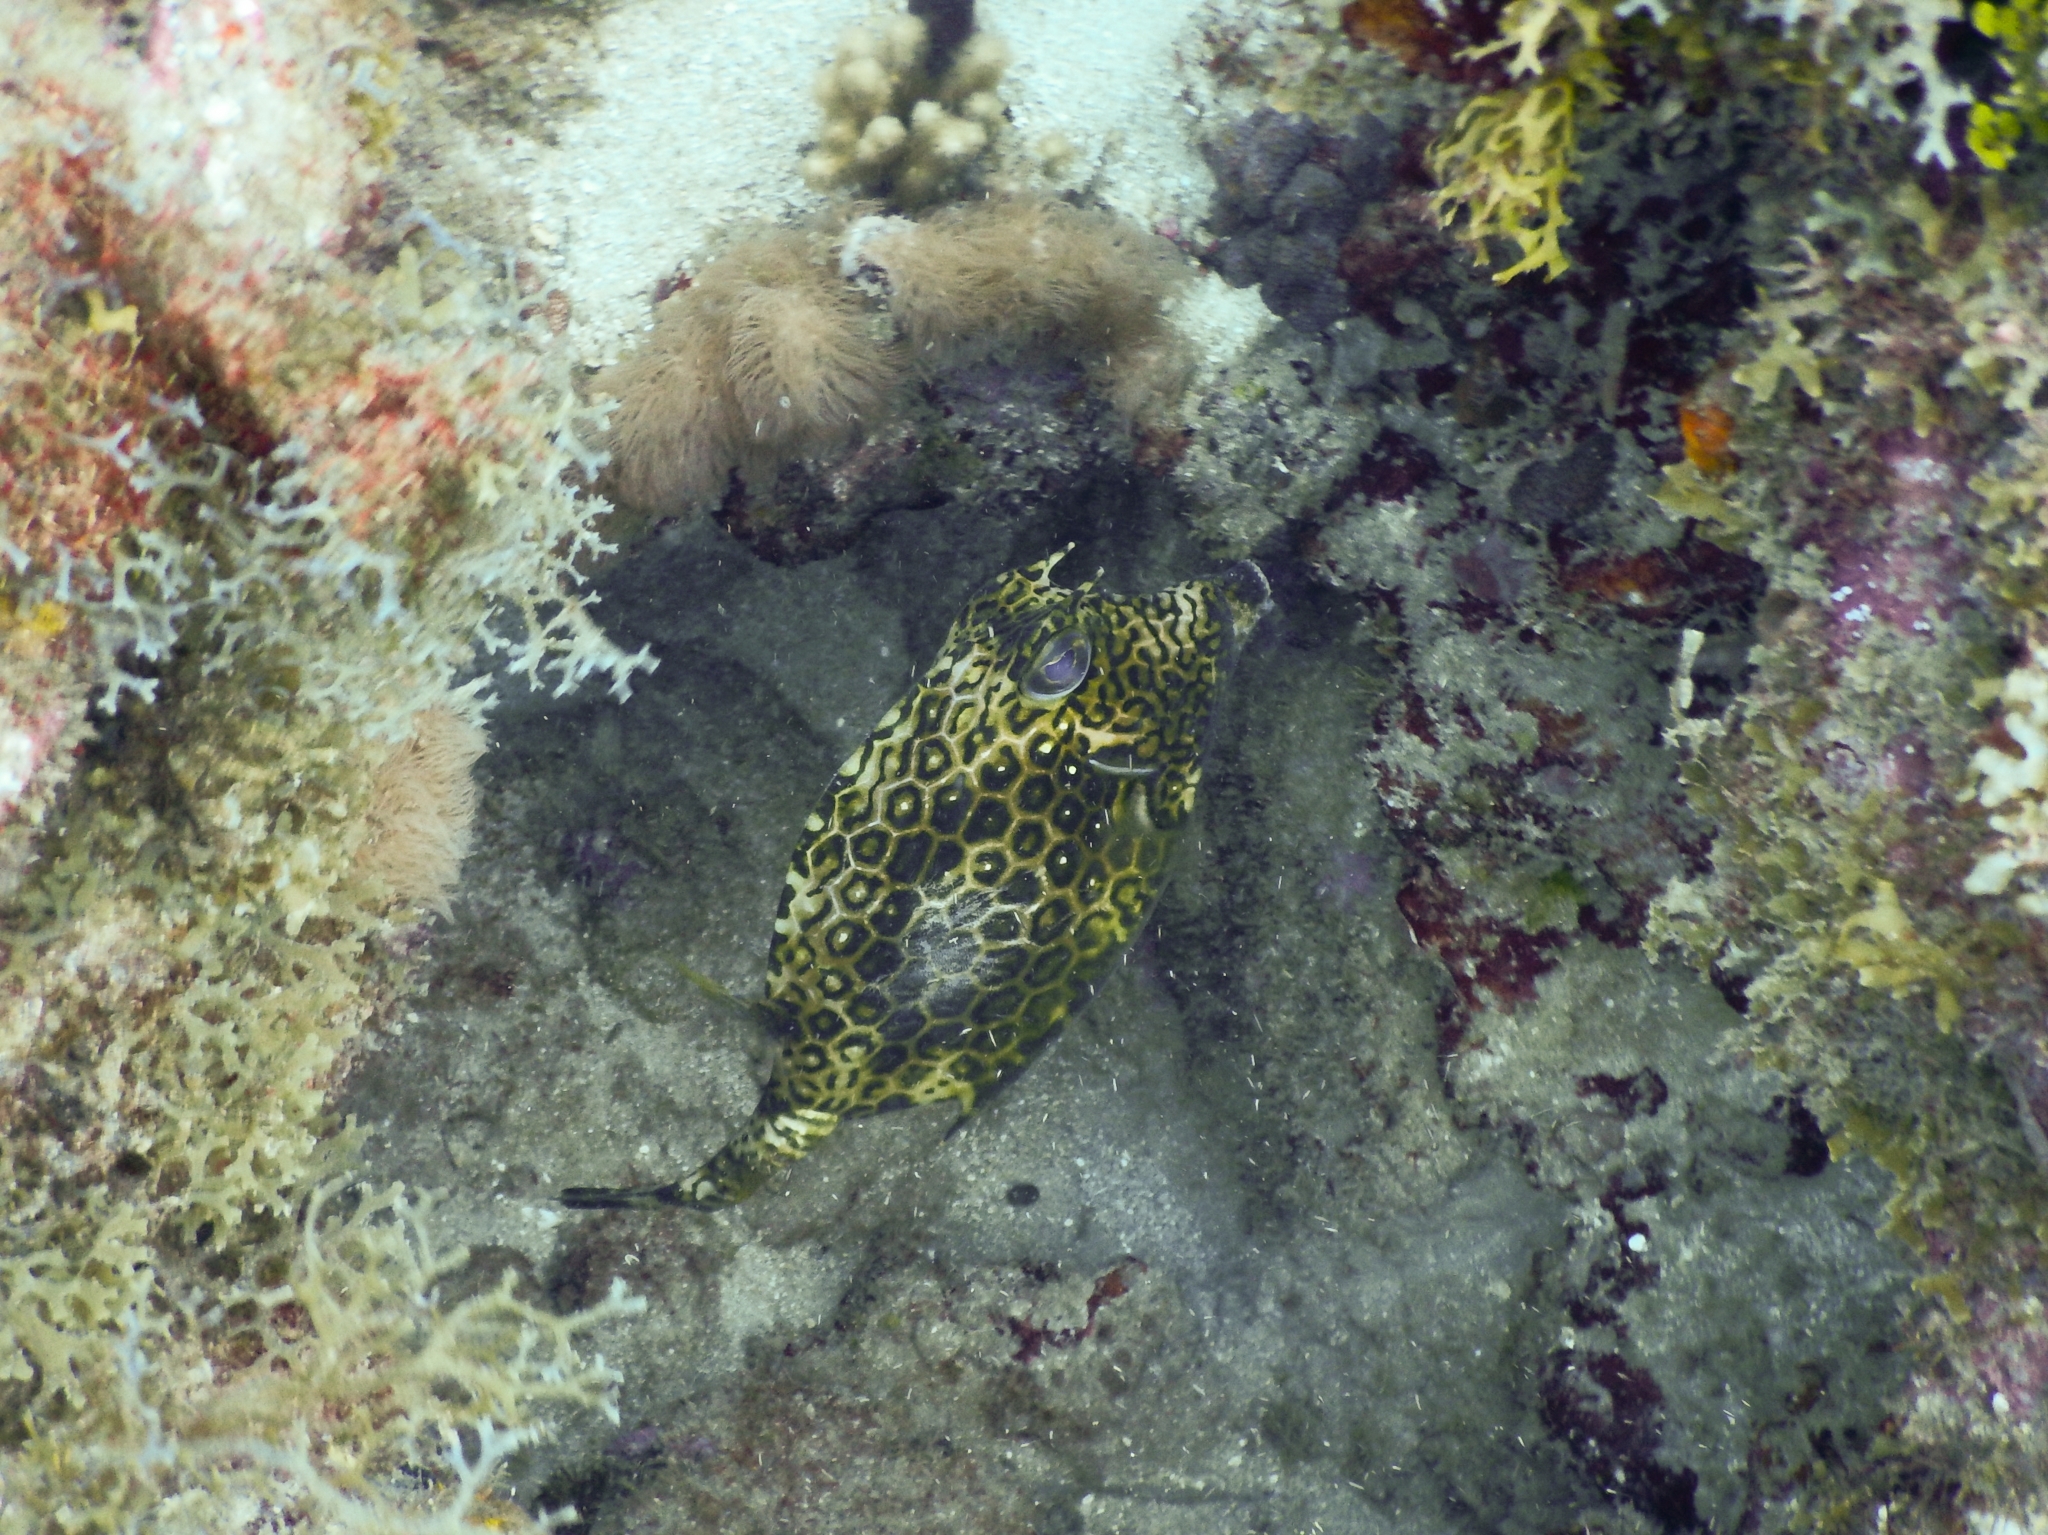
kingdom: Animalia
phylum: Chordata
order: Tetraodontiformes
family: Ostraciidae
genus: Acanthostracion
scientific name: Acanthostracion polygonius
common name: Honeycomb cowfish
